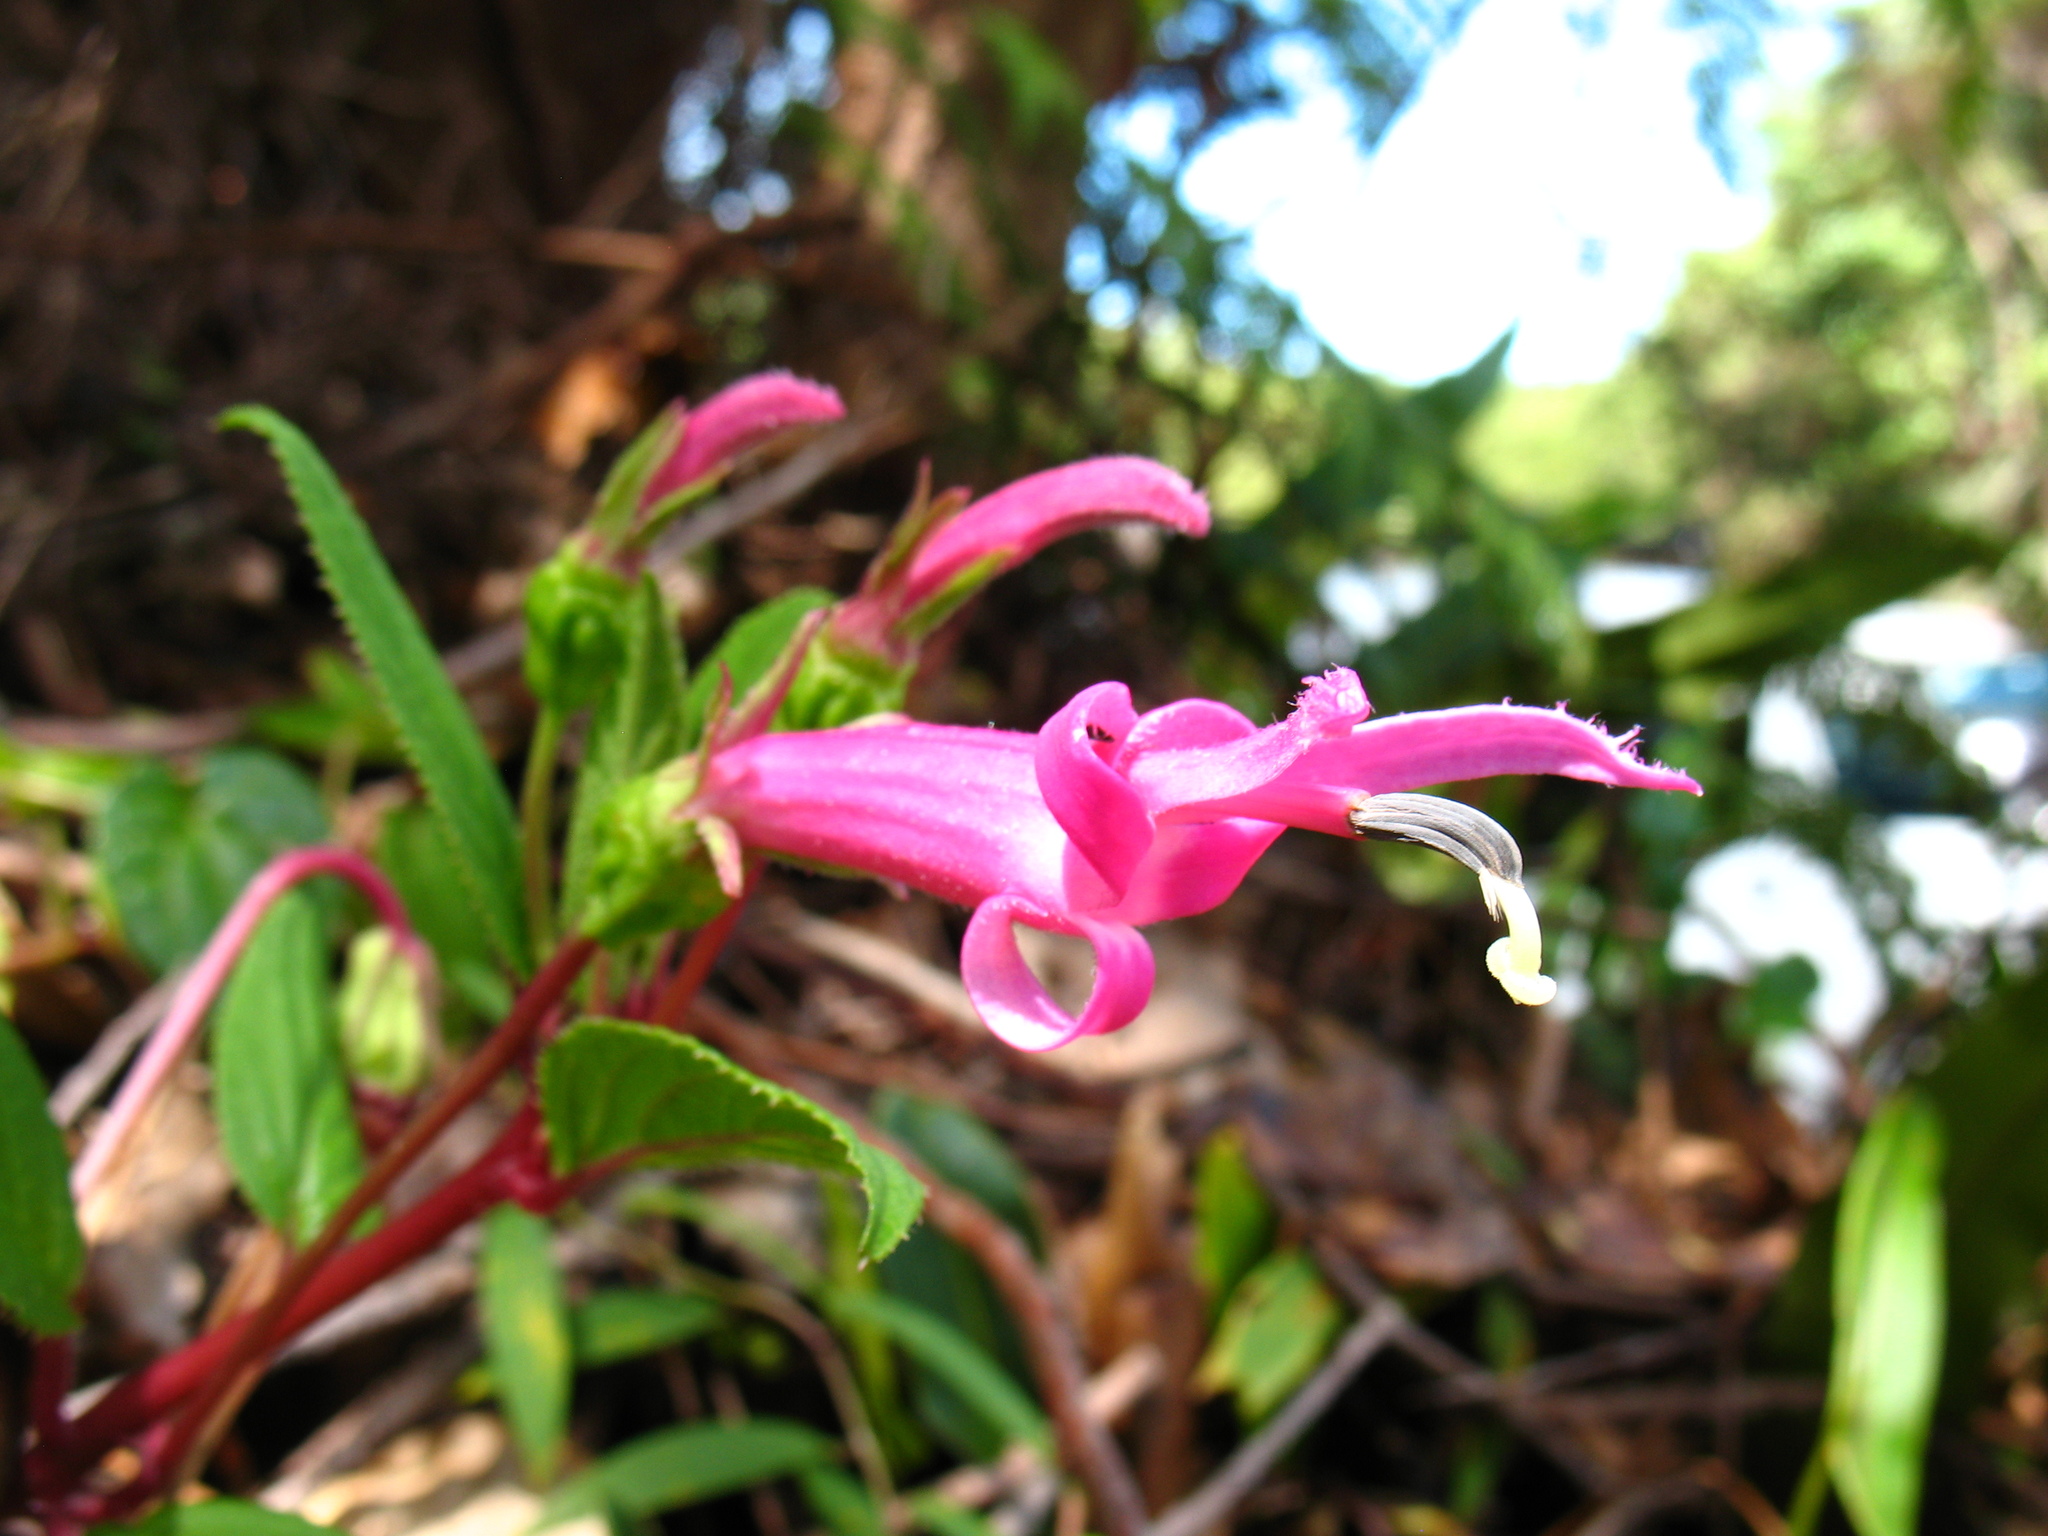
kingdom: Plantae
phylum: Tracheophyta
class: Magnoliopsida
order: Asterales
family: Campanulaceae
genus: Centropogon
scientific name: Centropogon gutierrezii
